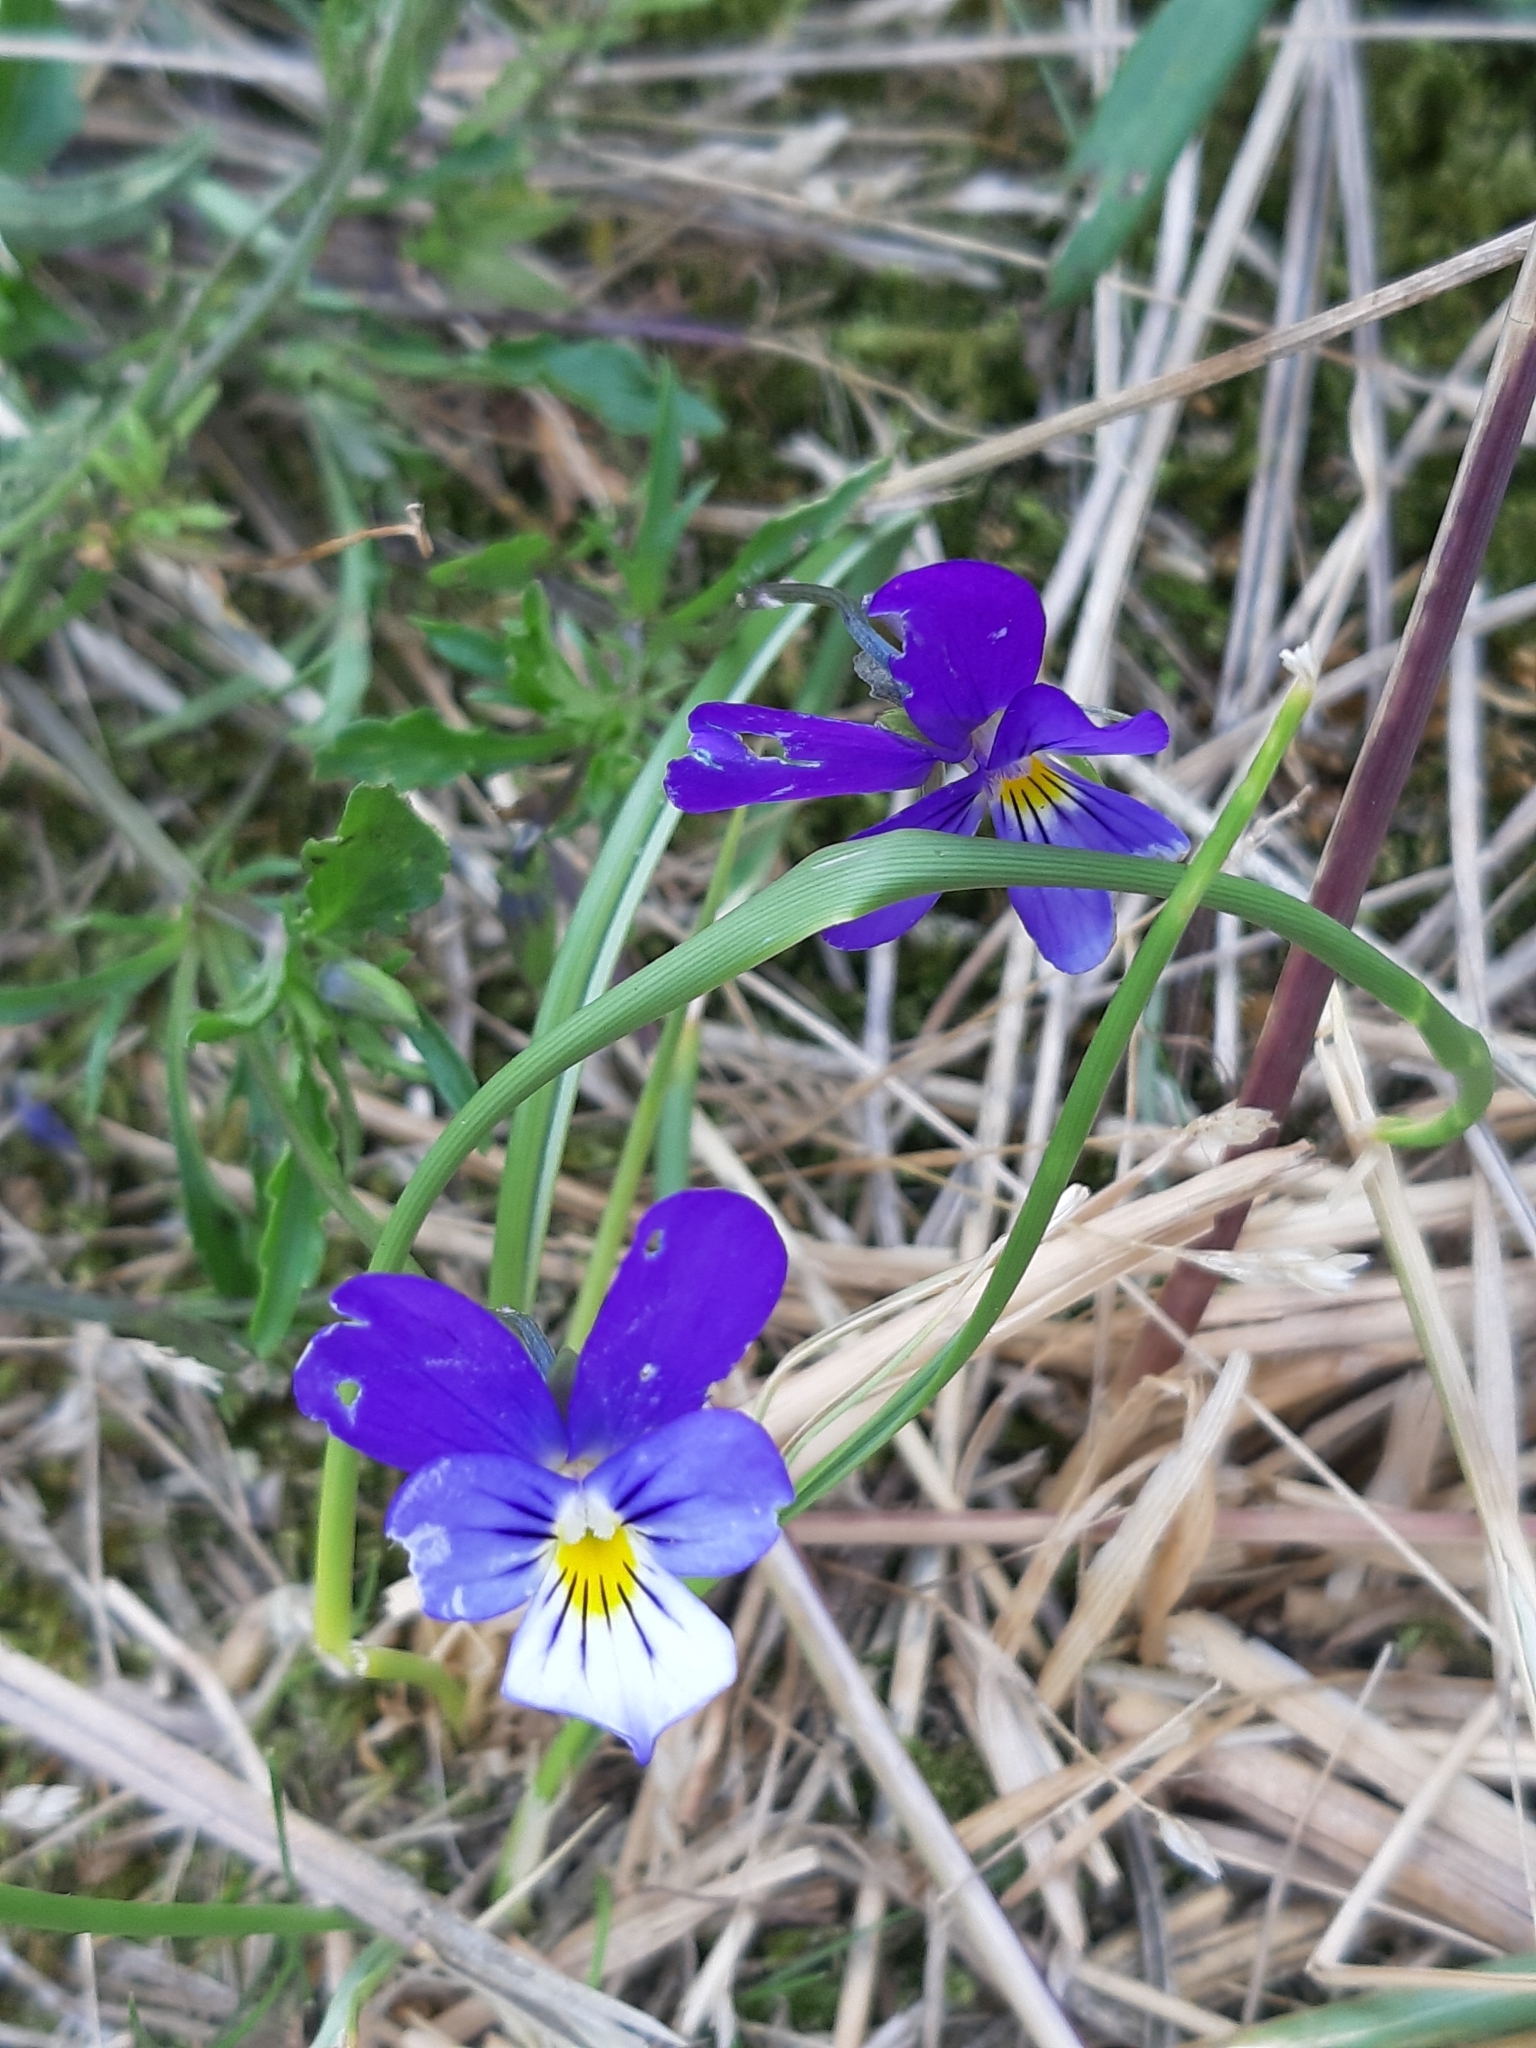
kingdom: Plantae
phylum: Tracheophyta
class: Magnoliopsida
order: Malpighiales
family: Violaceae
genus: Viola
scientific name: Viola tricolor
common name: Pansy
